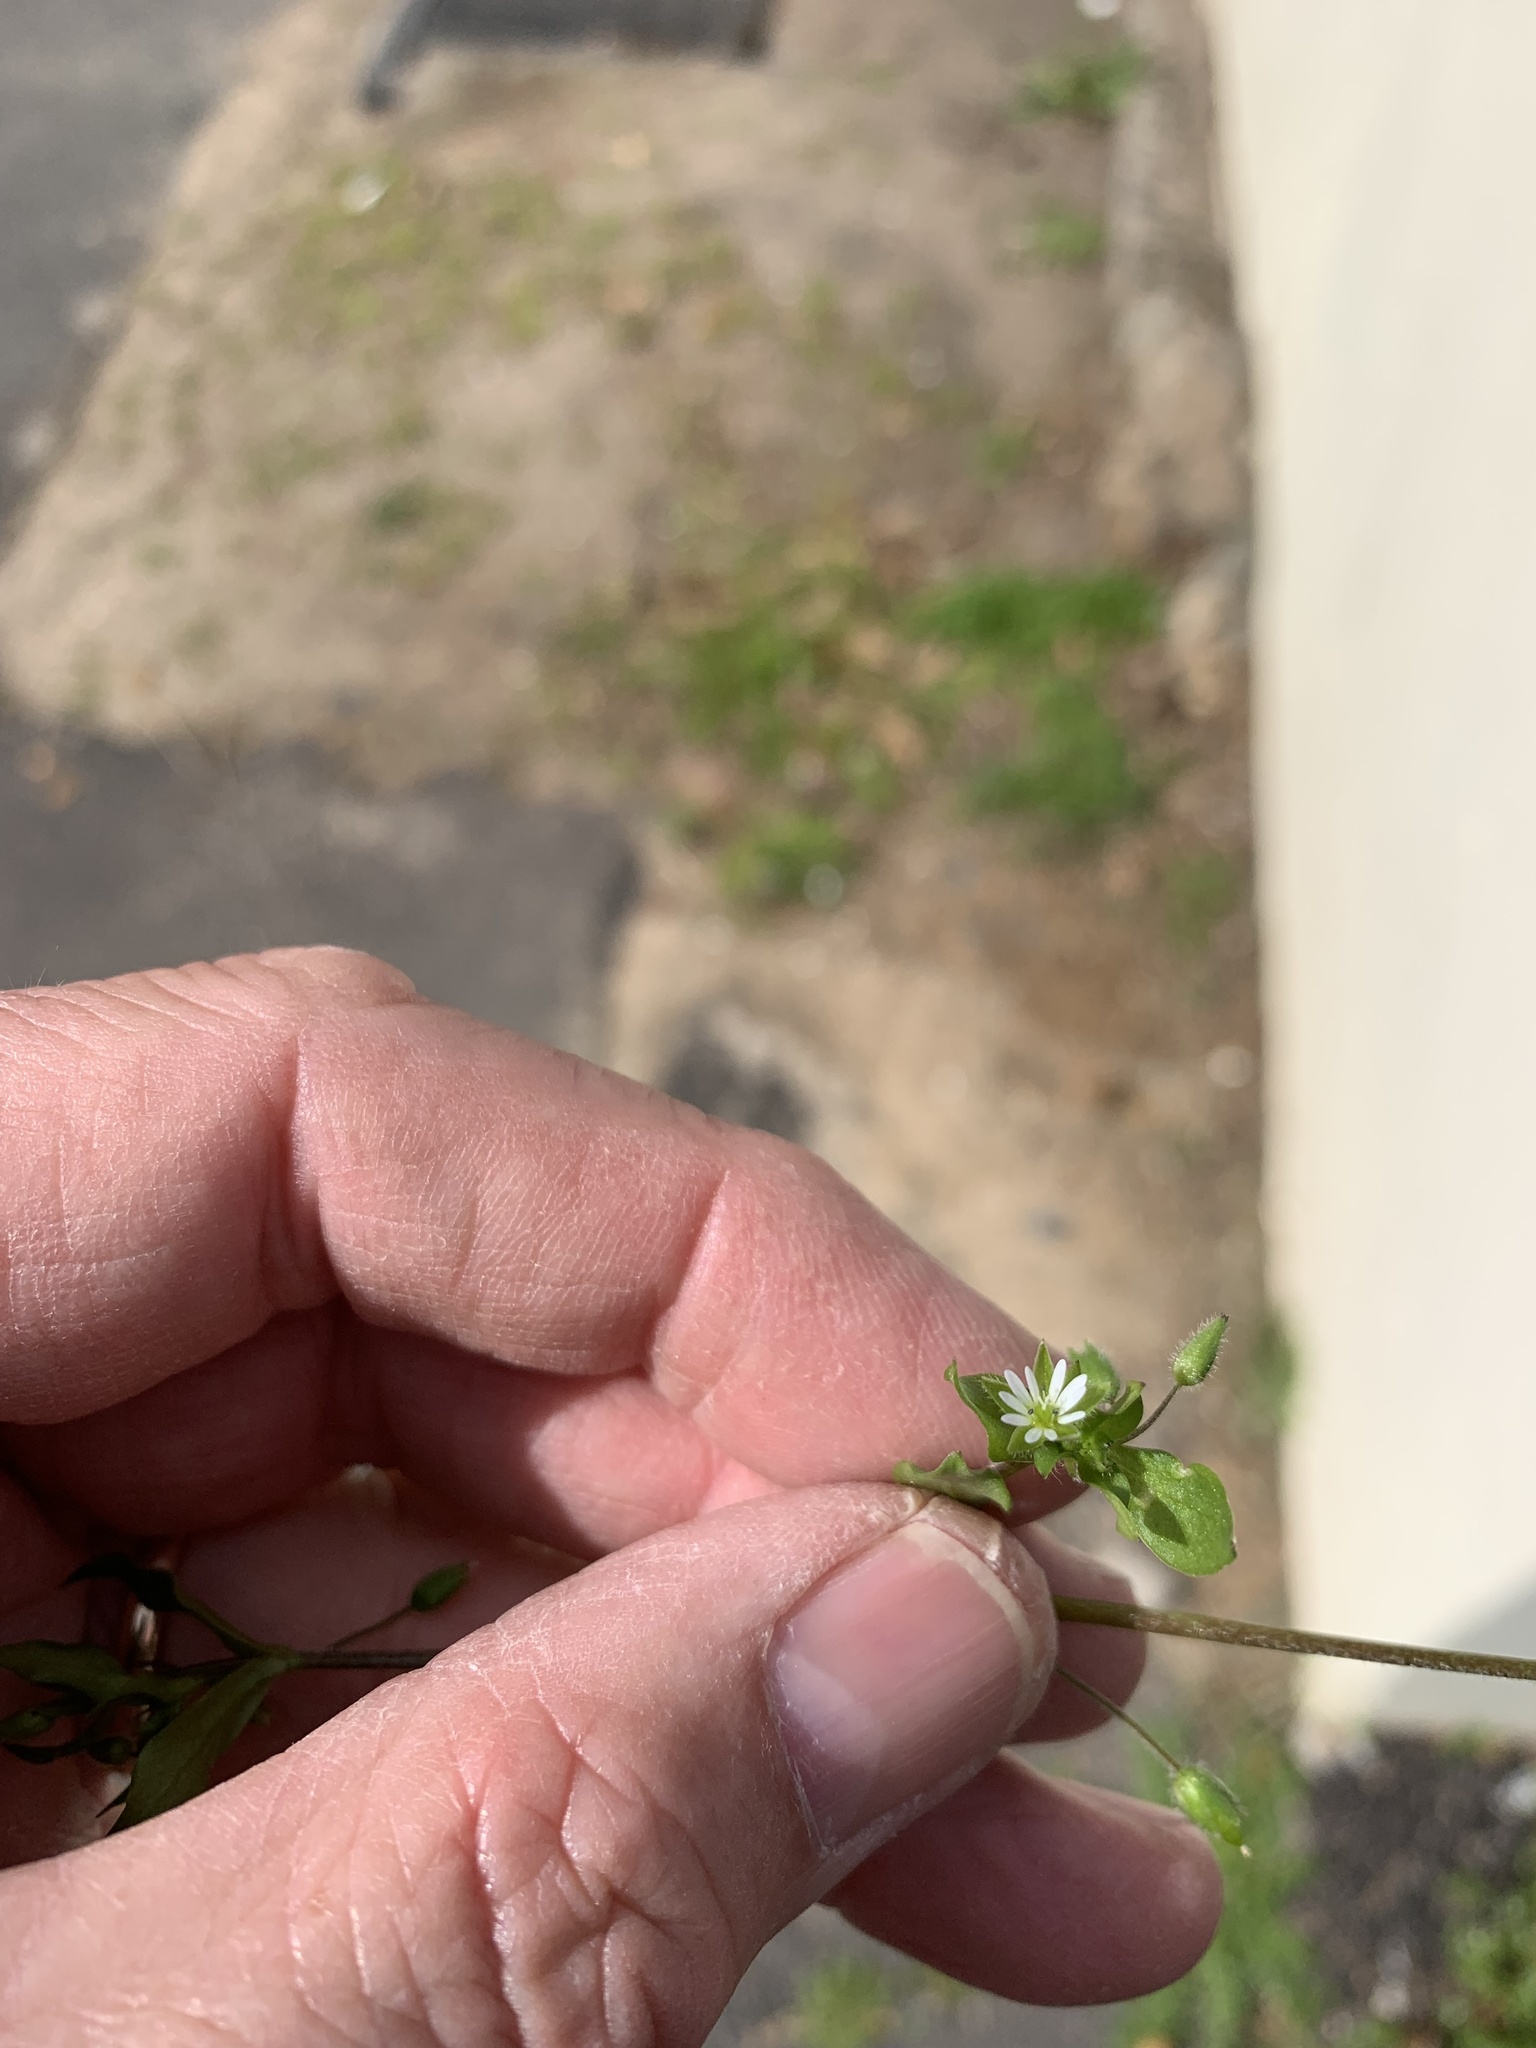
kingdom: Plantae
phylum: Tracheophyta
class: Magnoliopsida
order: Caryophyllales
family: Caryophyllaceae
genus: Stellaria
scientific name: Stellaria media
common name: Common chickweed
